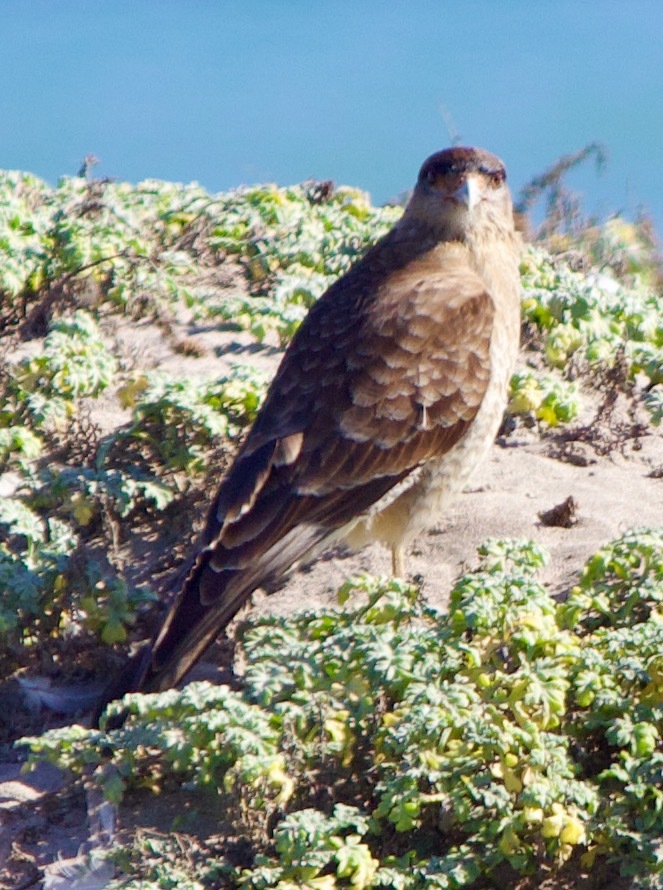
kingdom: Animalia
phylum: Chordata
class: Aves
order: Falconiformes
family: Falconidae
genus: Daptrius
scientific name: Daptrius
